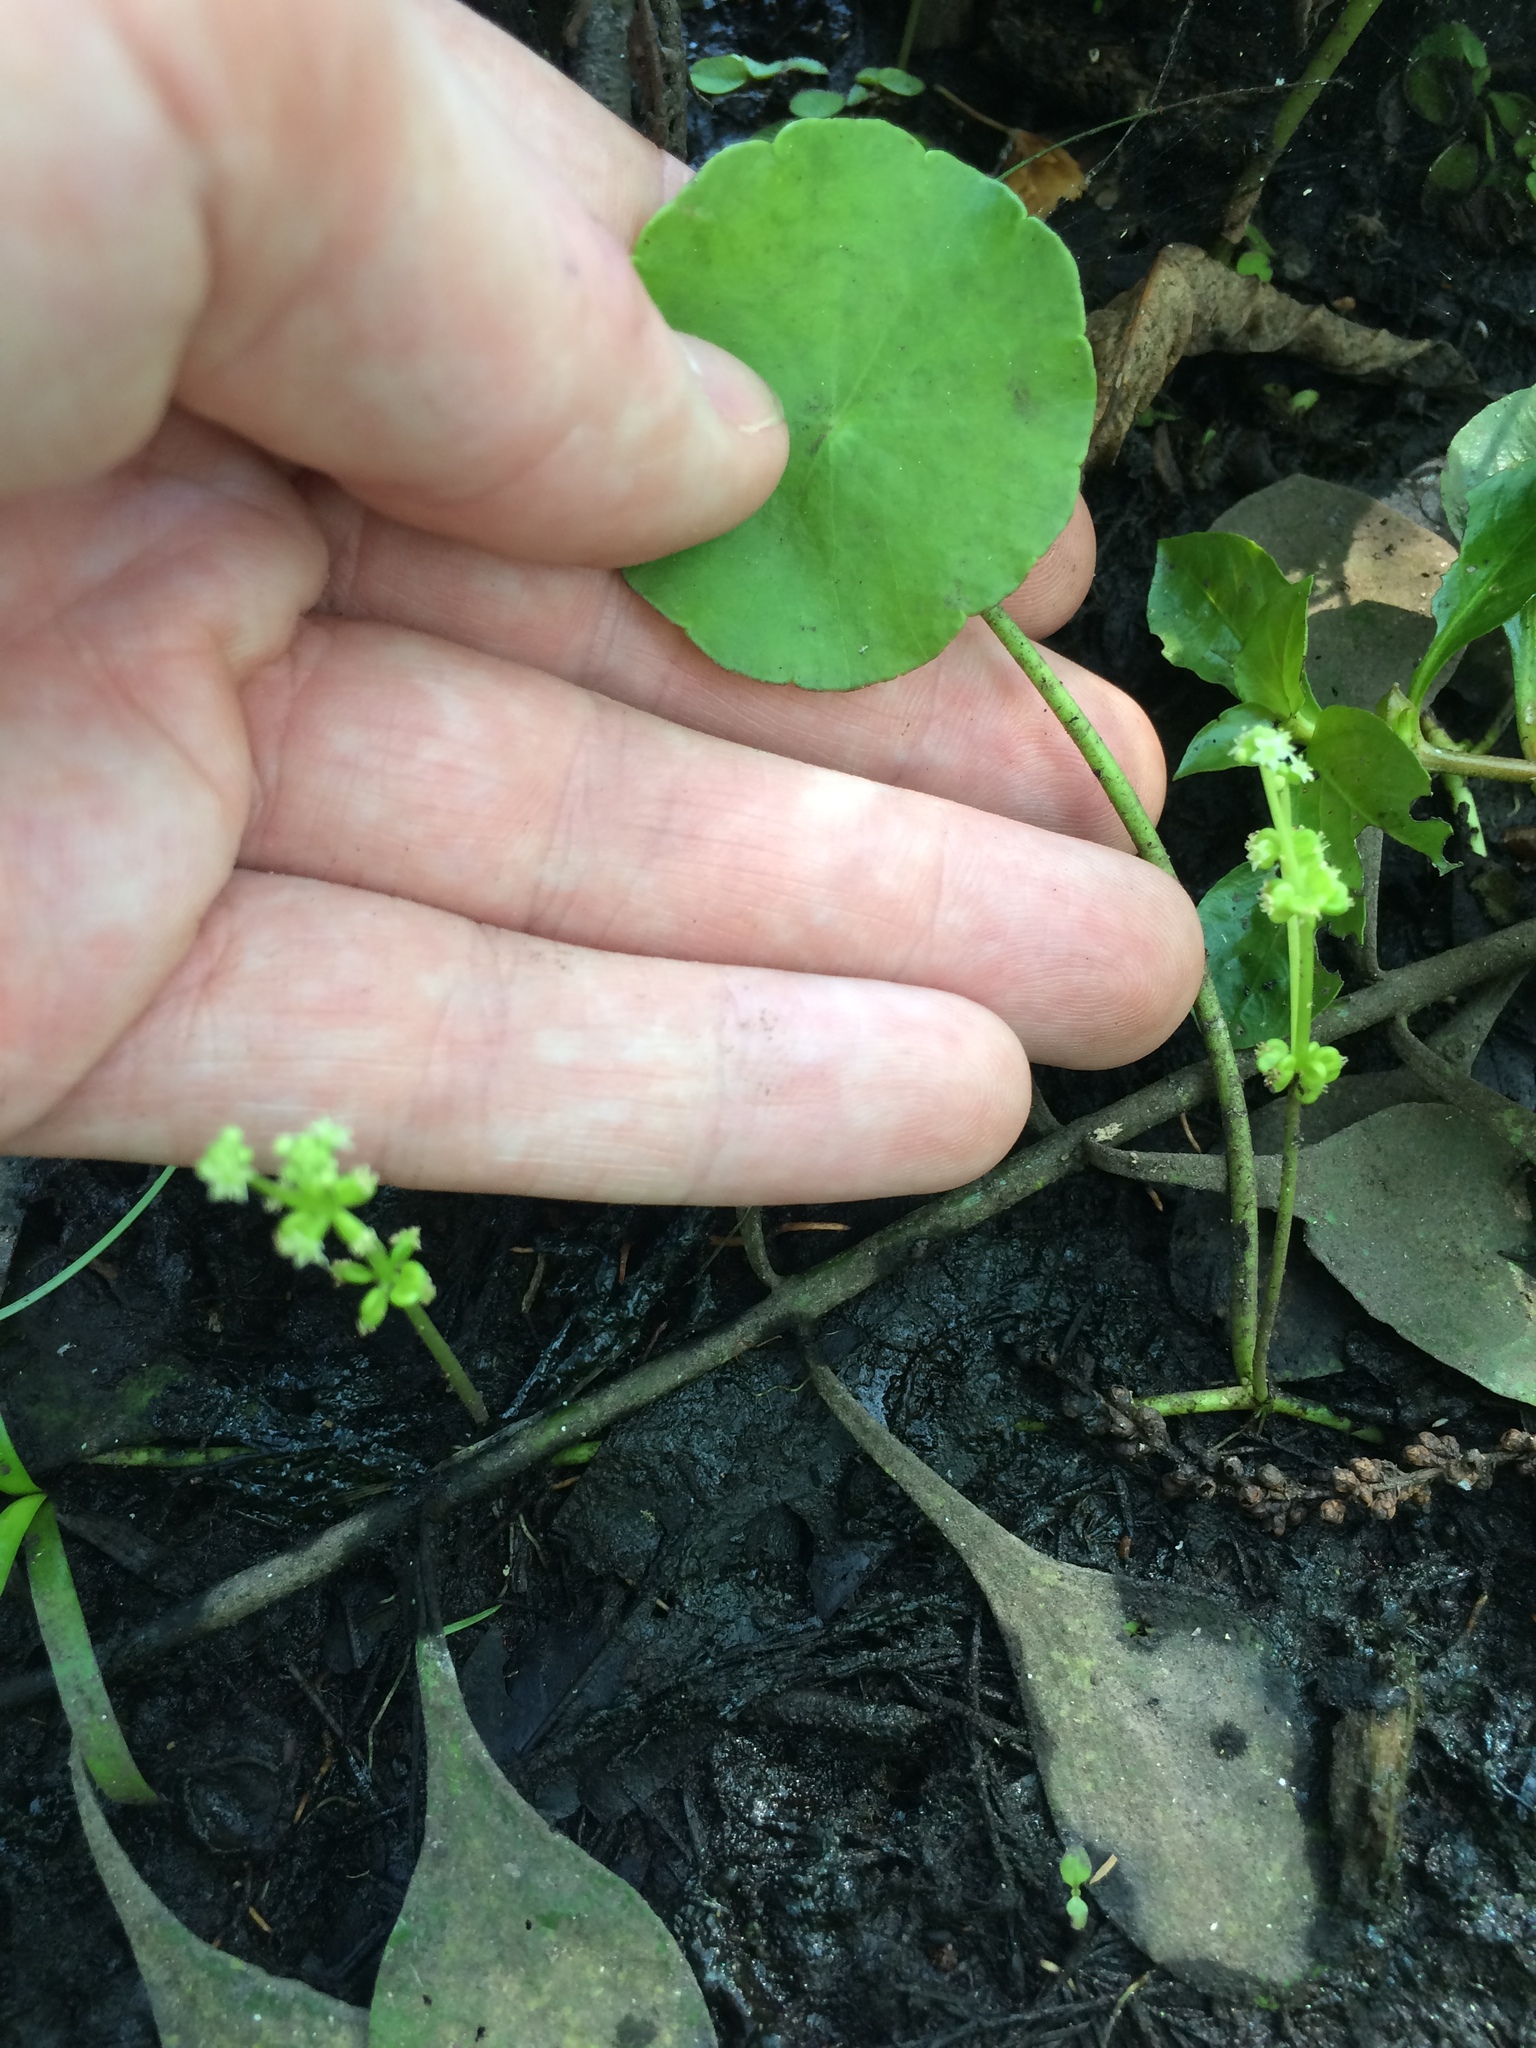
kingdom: Plantae
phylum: Tracheophyta
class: Magnoliopsida
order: Apiales
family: Araliaceae
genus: Hydrocotyle
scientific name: Hydrocotyle verticillata
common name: Whorled marshpennywort
